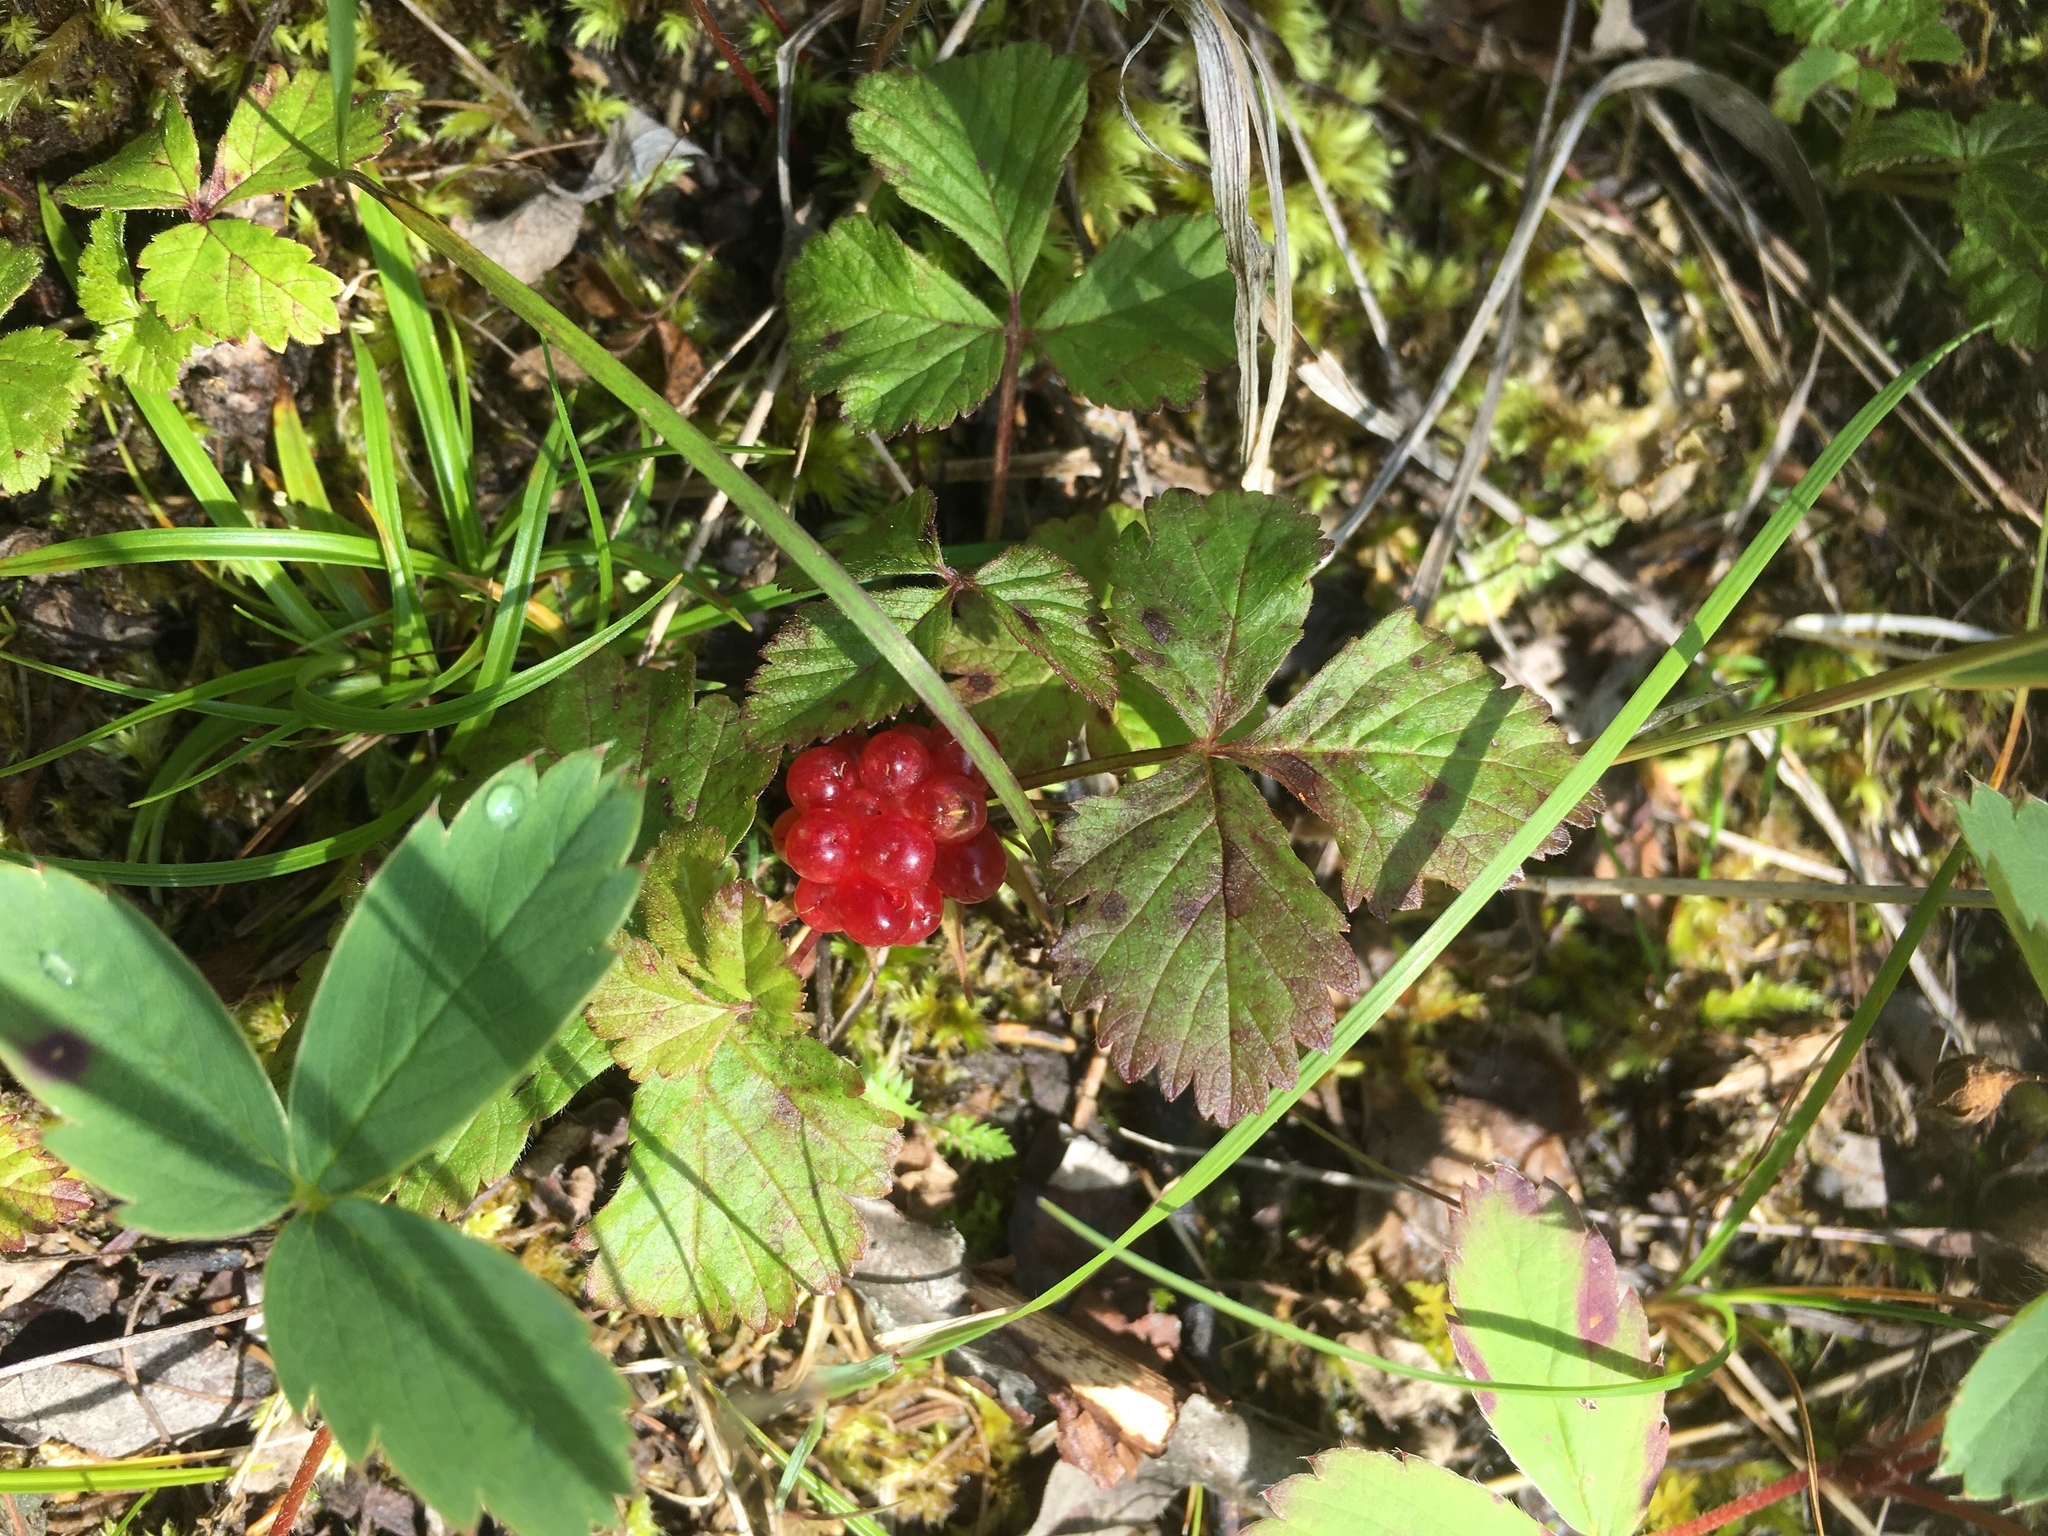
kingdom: Plantae
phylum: Tracheophyta
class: Magnoliopsida
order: Rosales
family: Rosaceae
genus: Rubus
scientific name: Rubus arcticus
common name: Arctic bramble
